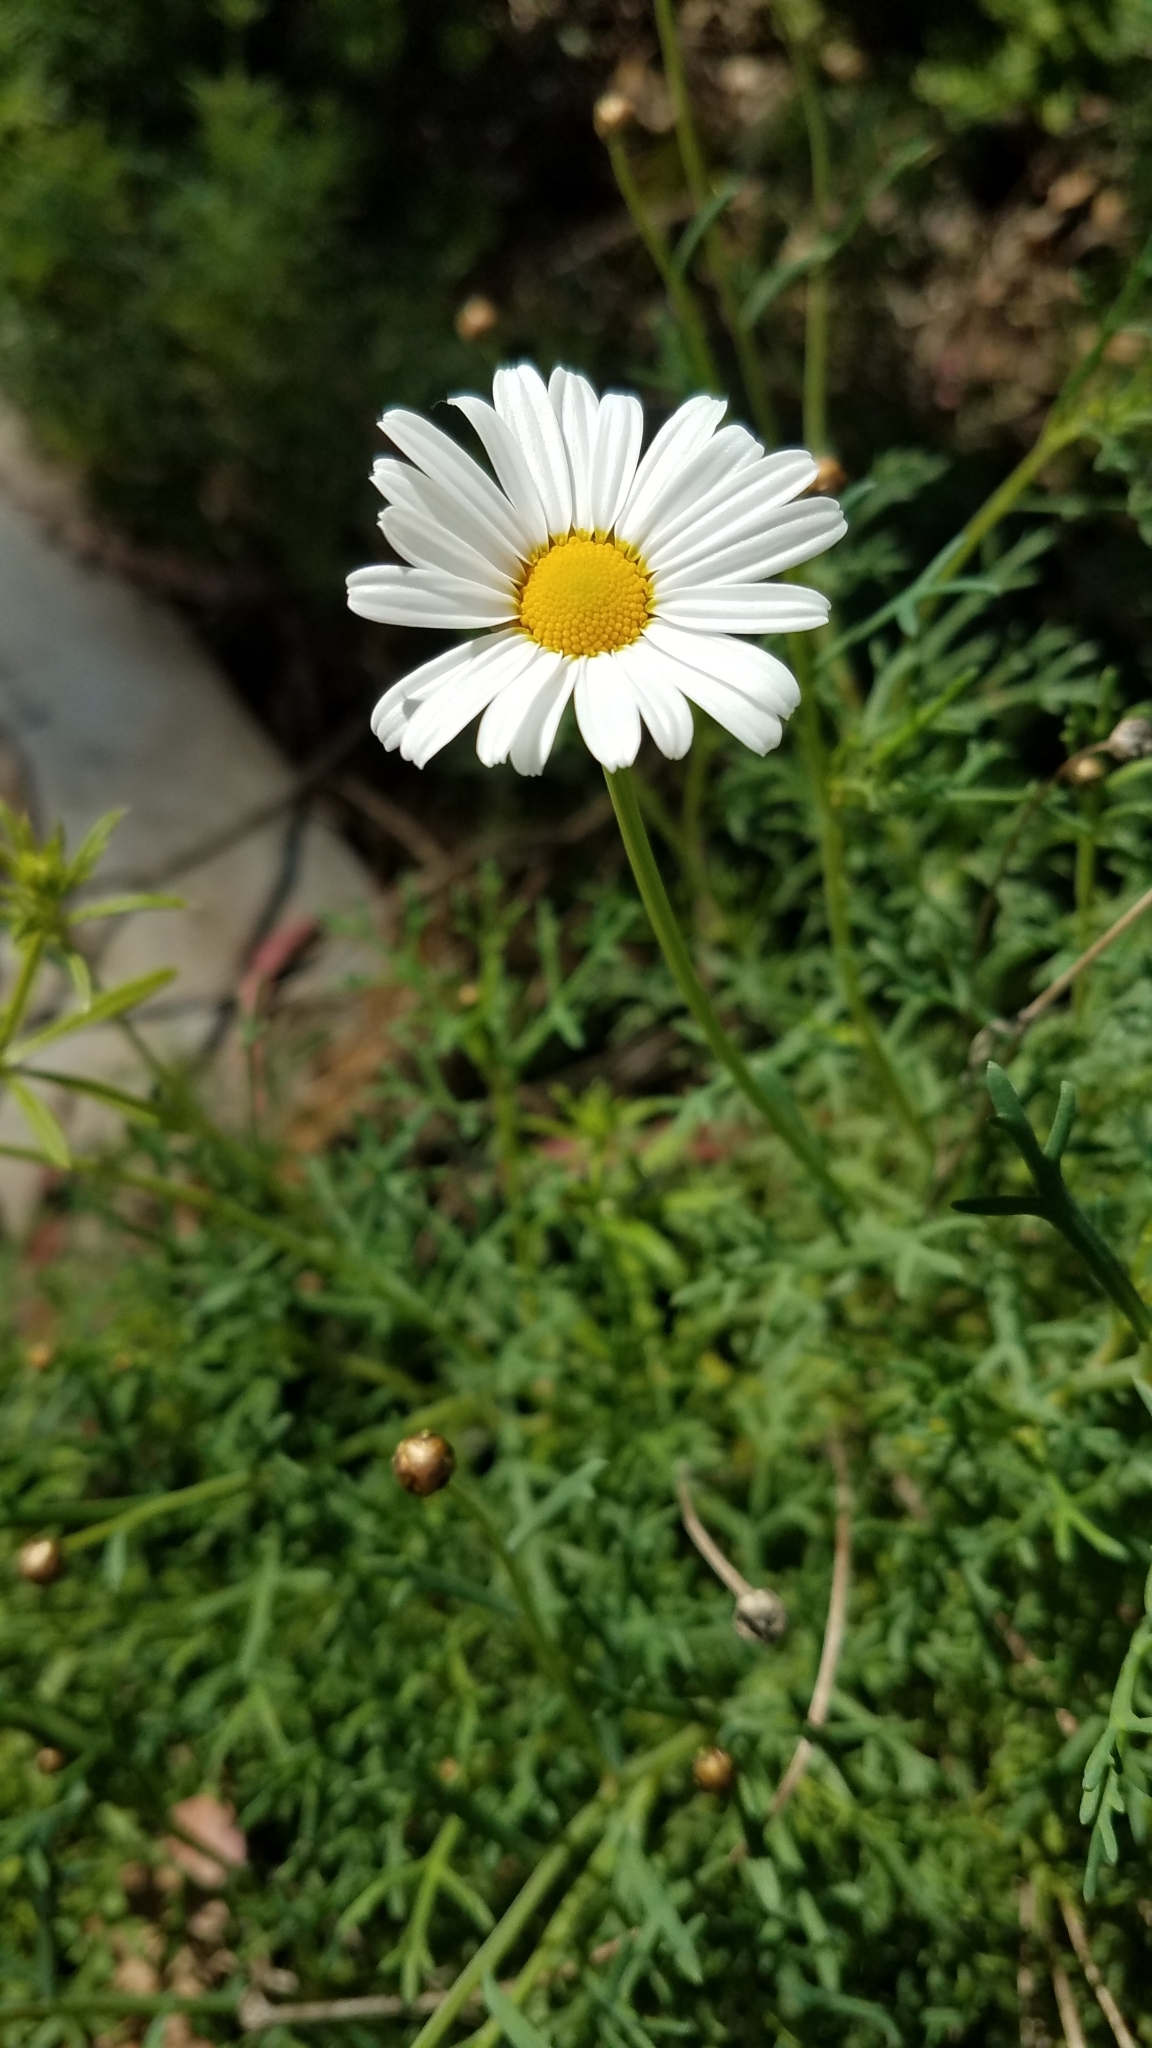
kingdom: Plantae
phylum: Tracheophyta
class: Magnoliopsida
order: Asterales
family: Asteraceae
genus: Argyranthemum
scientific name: Argyranthemum foeniculaceum
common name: Canary island marguerite
